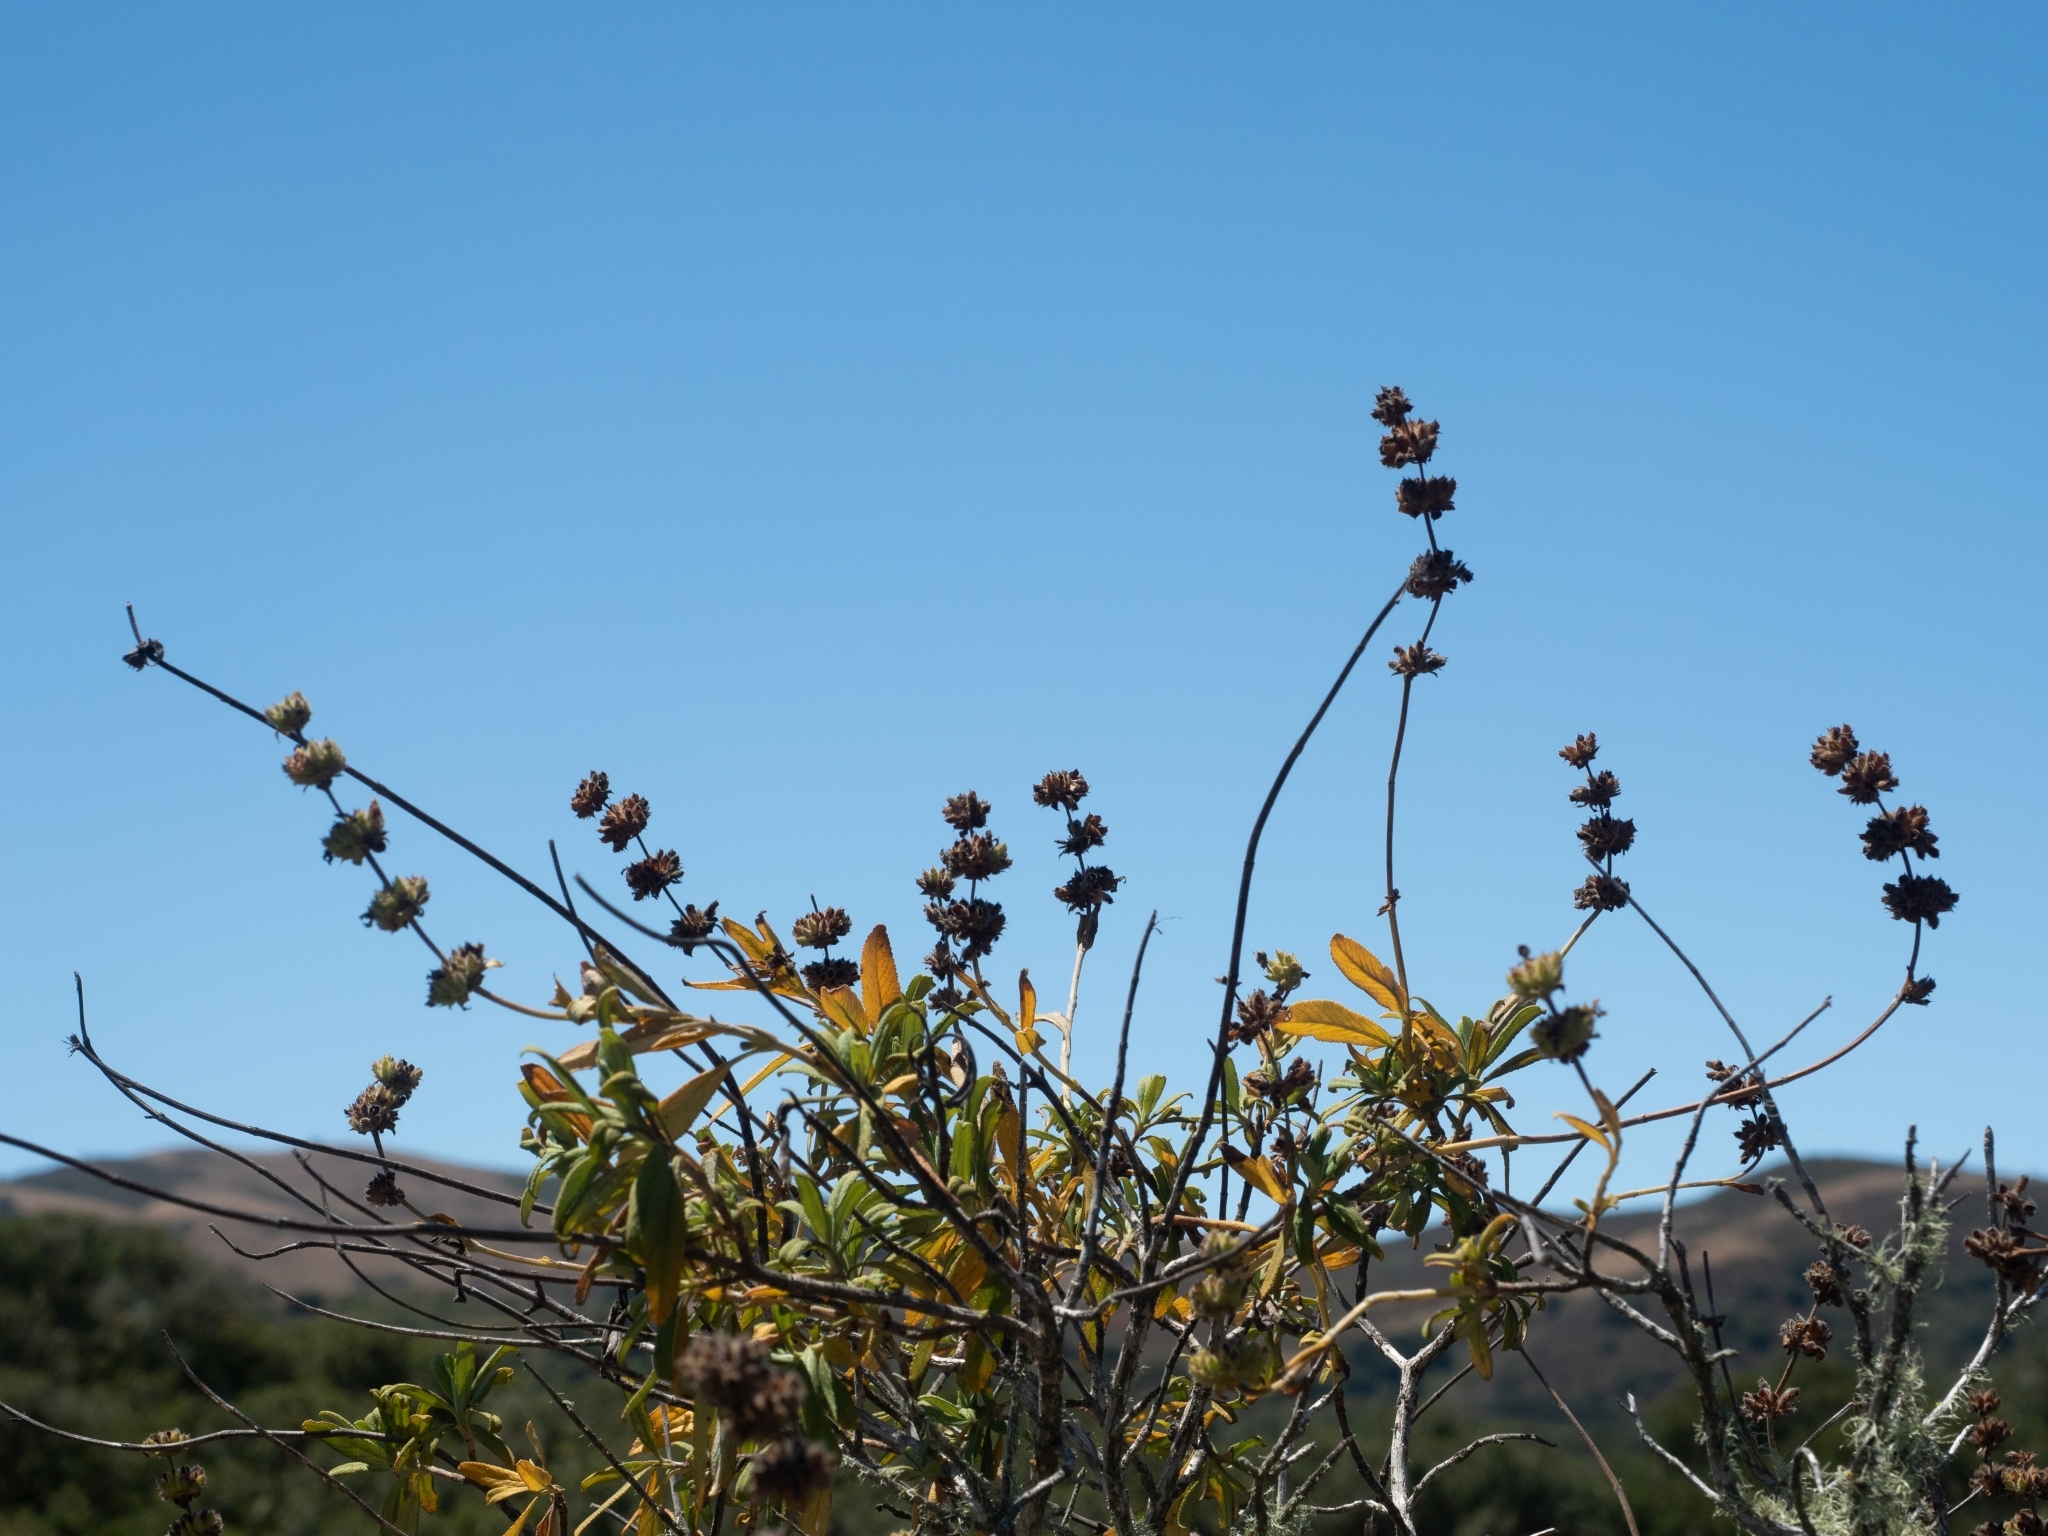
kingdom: Plantae
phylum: Tracheophyta
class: Magnoliopsida
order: Lamiales
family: Lamiaceae
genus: Salvia
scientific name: Salvia mellifera
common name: Black sage
